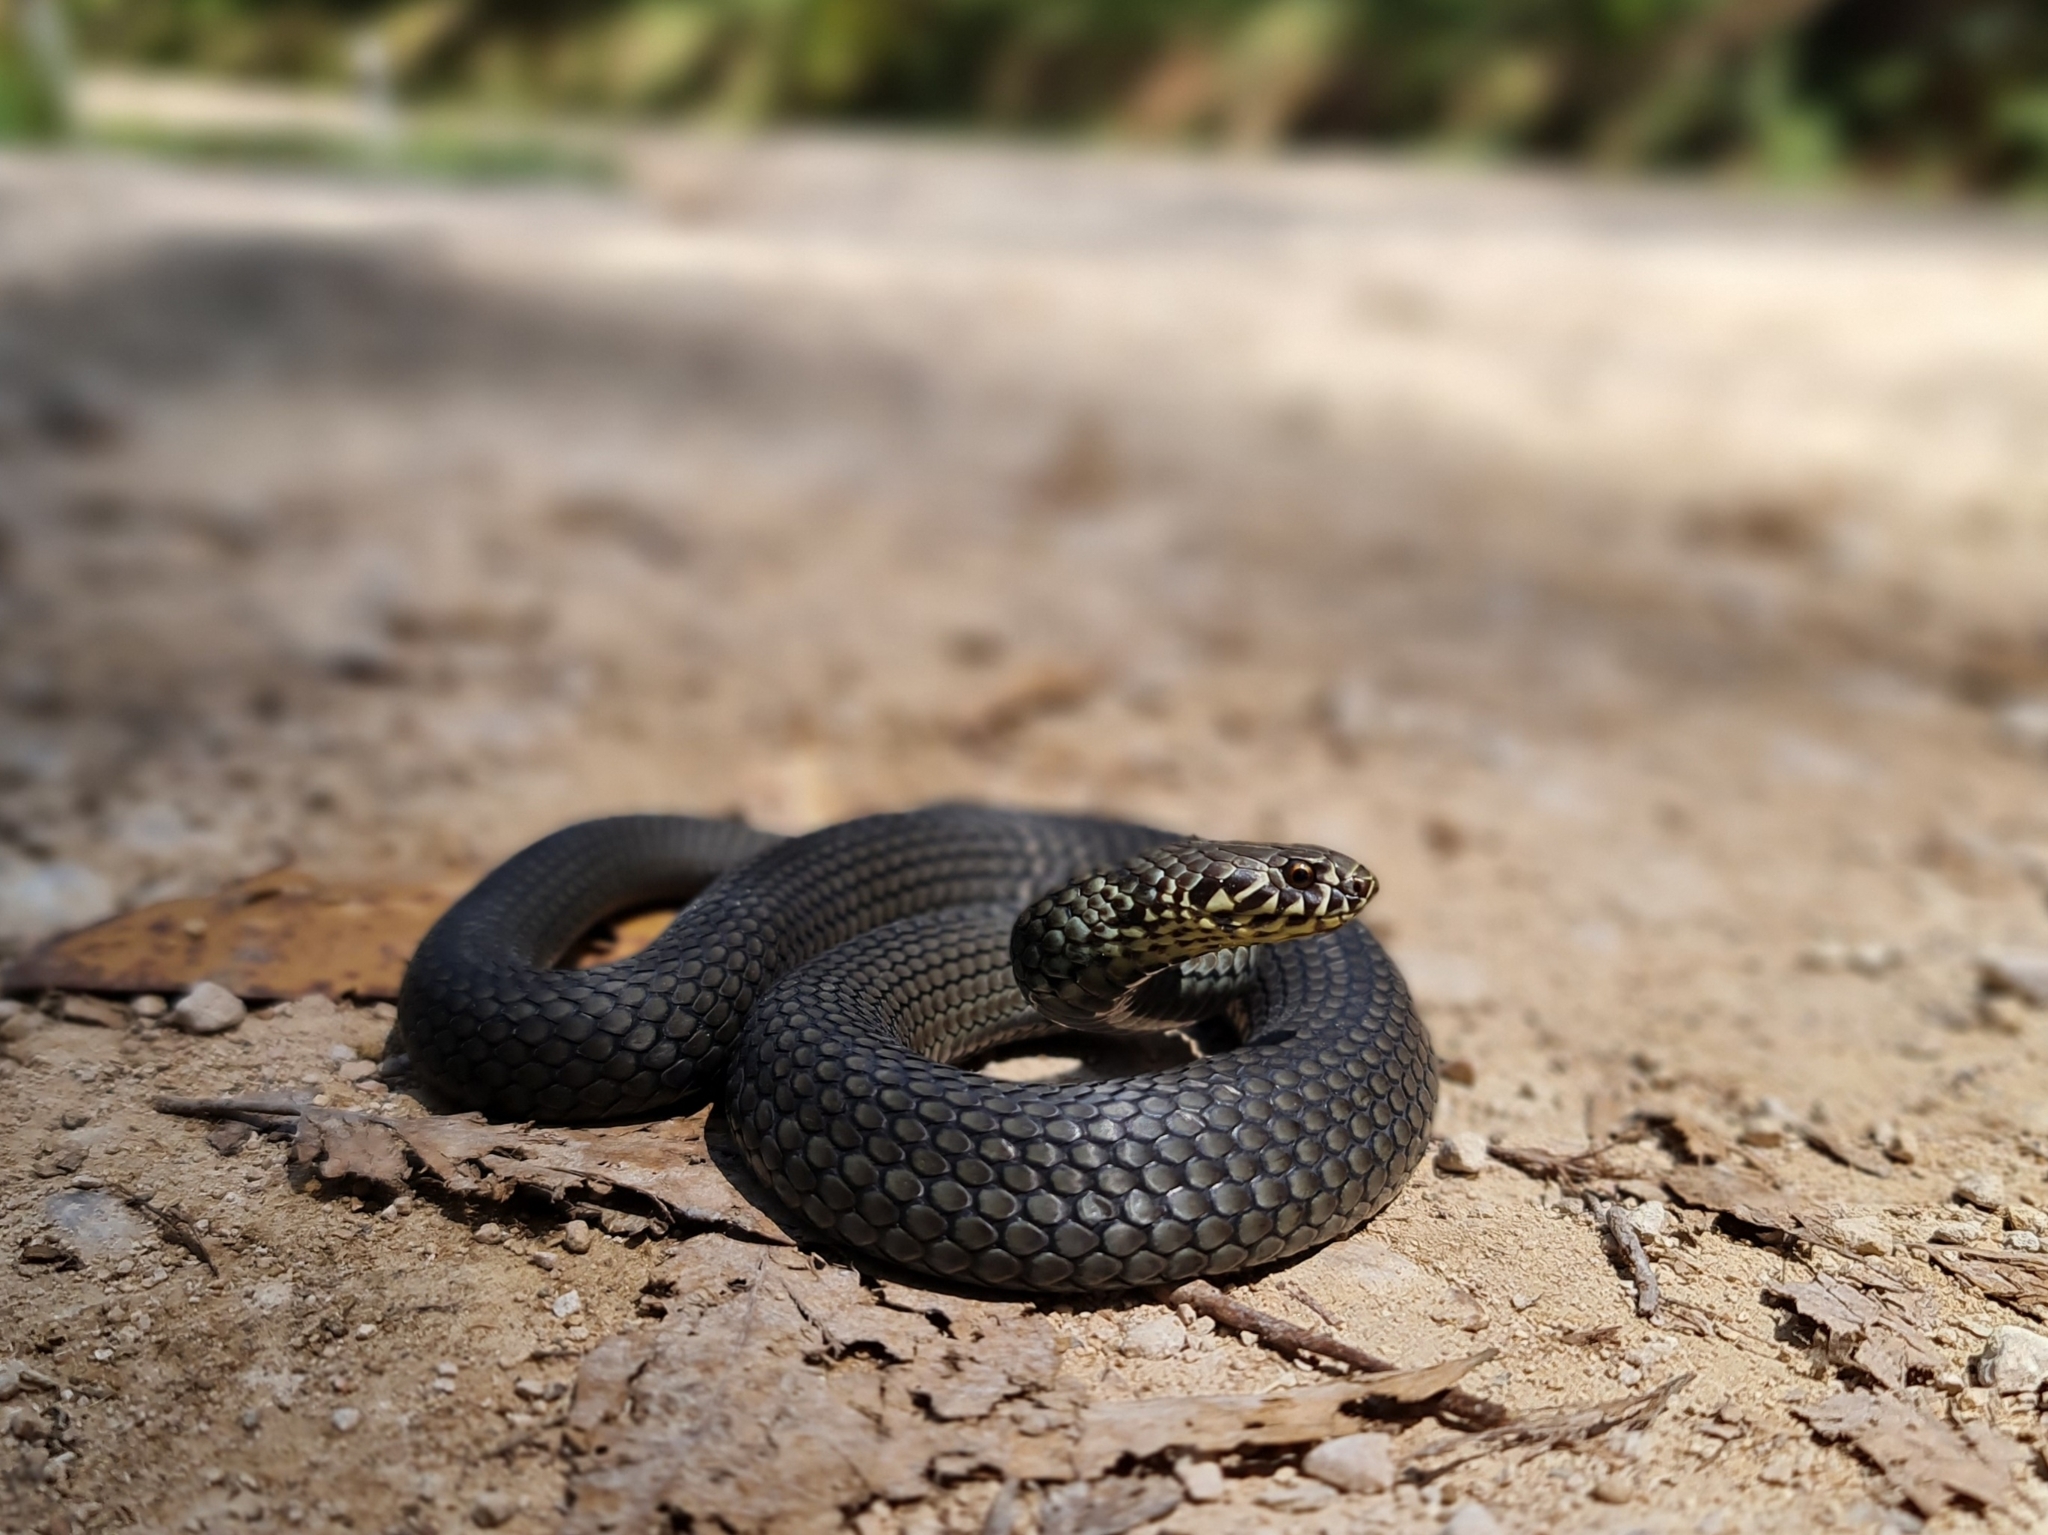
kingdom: Animalia
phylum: Chordata
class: Squamata
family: Elapidae
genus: Austrelaps
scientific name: Austrelaps labialis
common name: Pygmy copperhead
